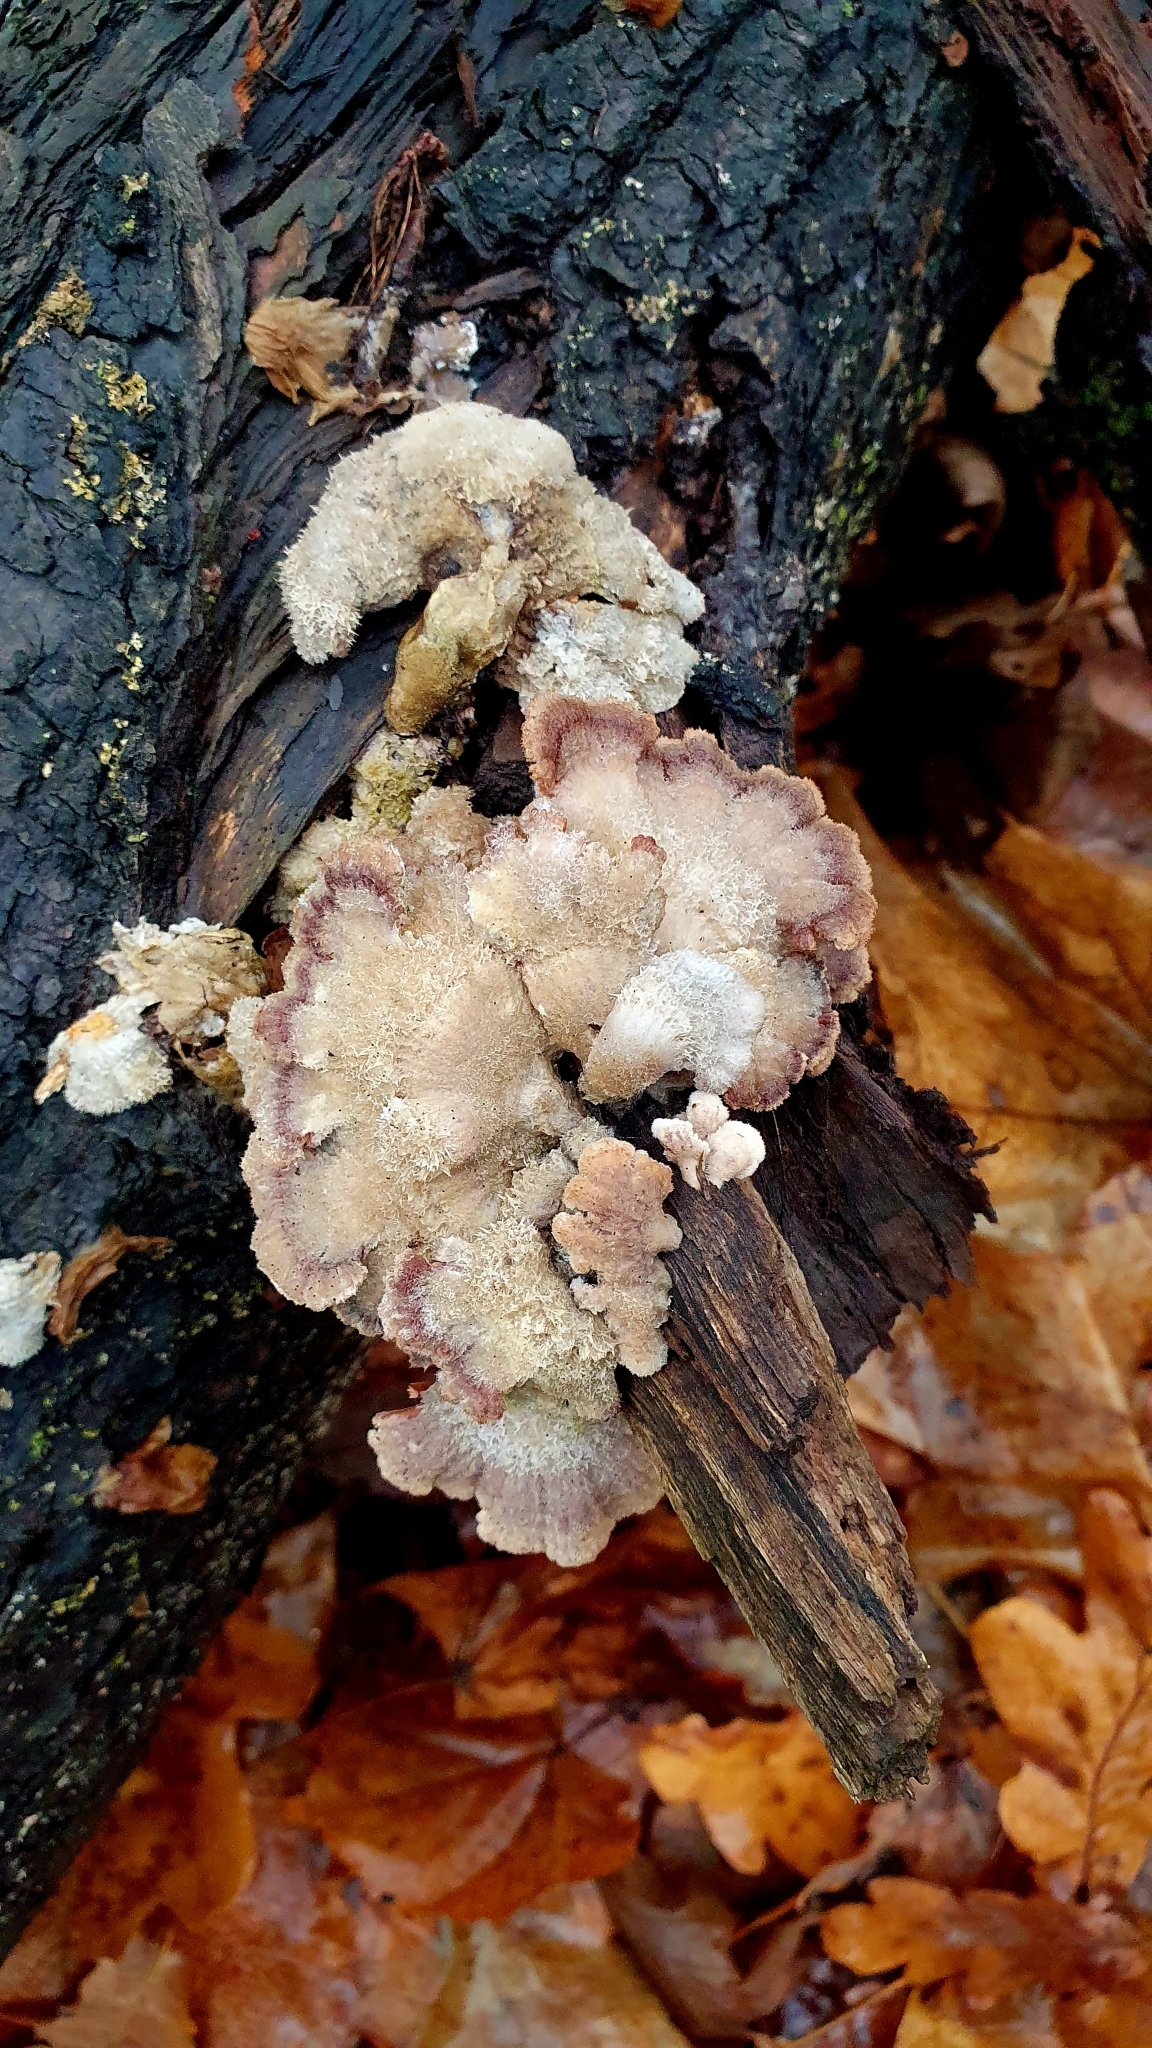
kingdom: Fungi
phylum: Basidiomycota
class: Agaricomycetes
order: Agaricales
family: Schizophyllaceae
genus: Schizophyllum
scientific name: Schizophyllum commune
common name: Common porecrust
